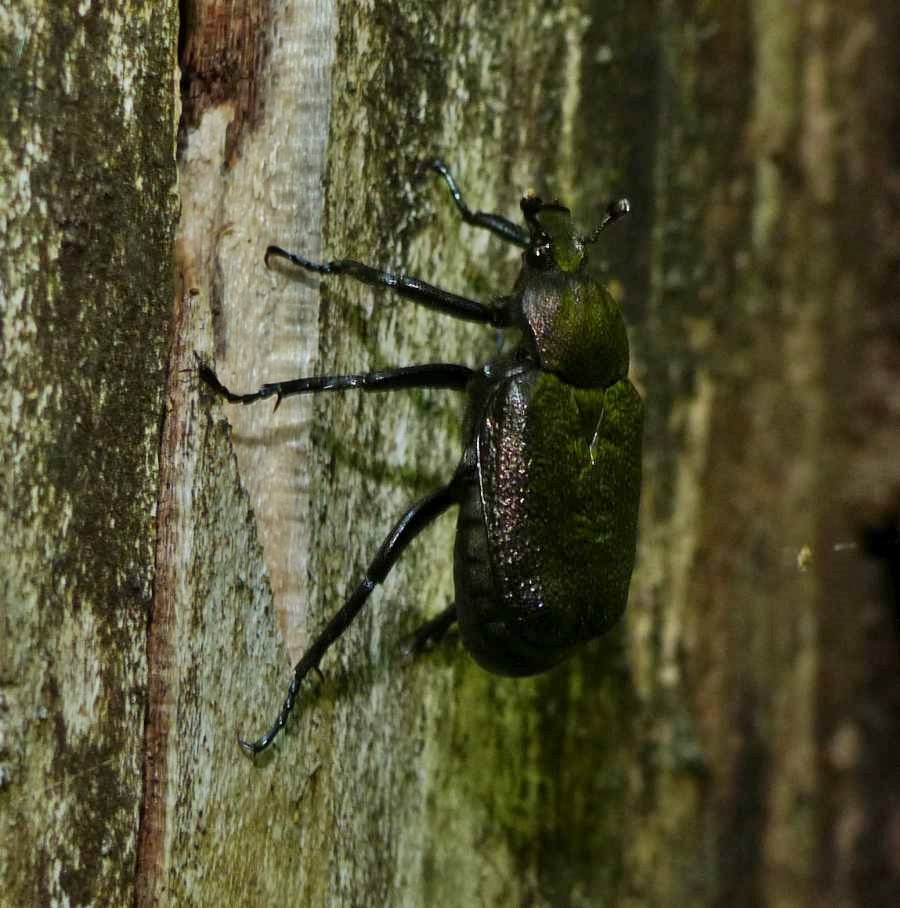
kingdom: Animalia
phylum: Arthropoda
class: Insecta
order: Coleoptera
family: Scarabaeidae
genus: Osmoderma
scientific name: Osmoderma scabra
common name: Rough hermit beetle
